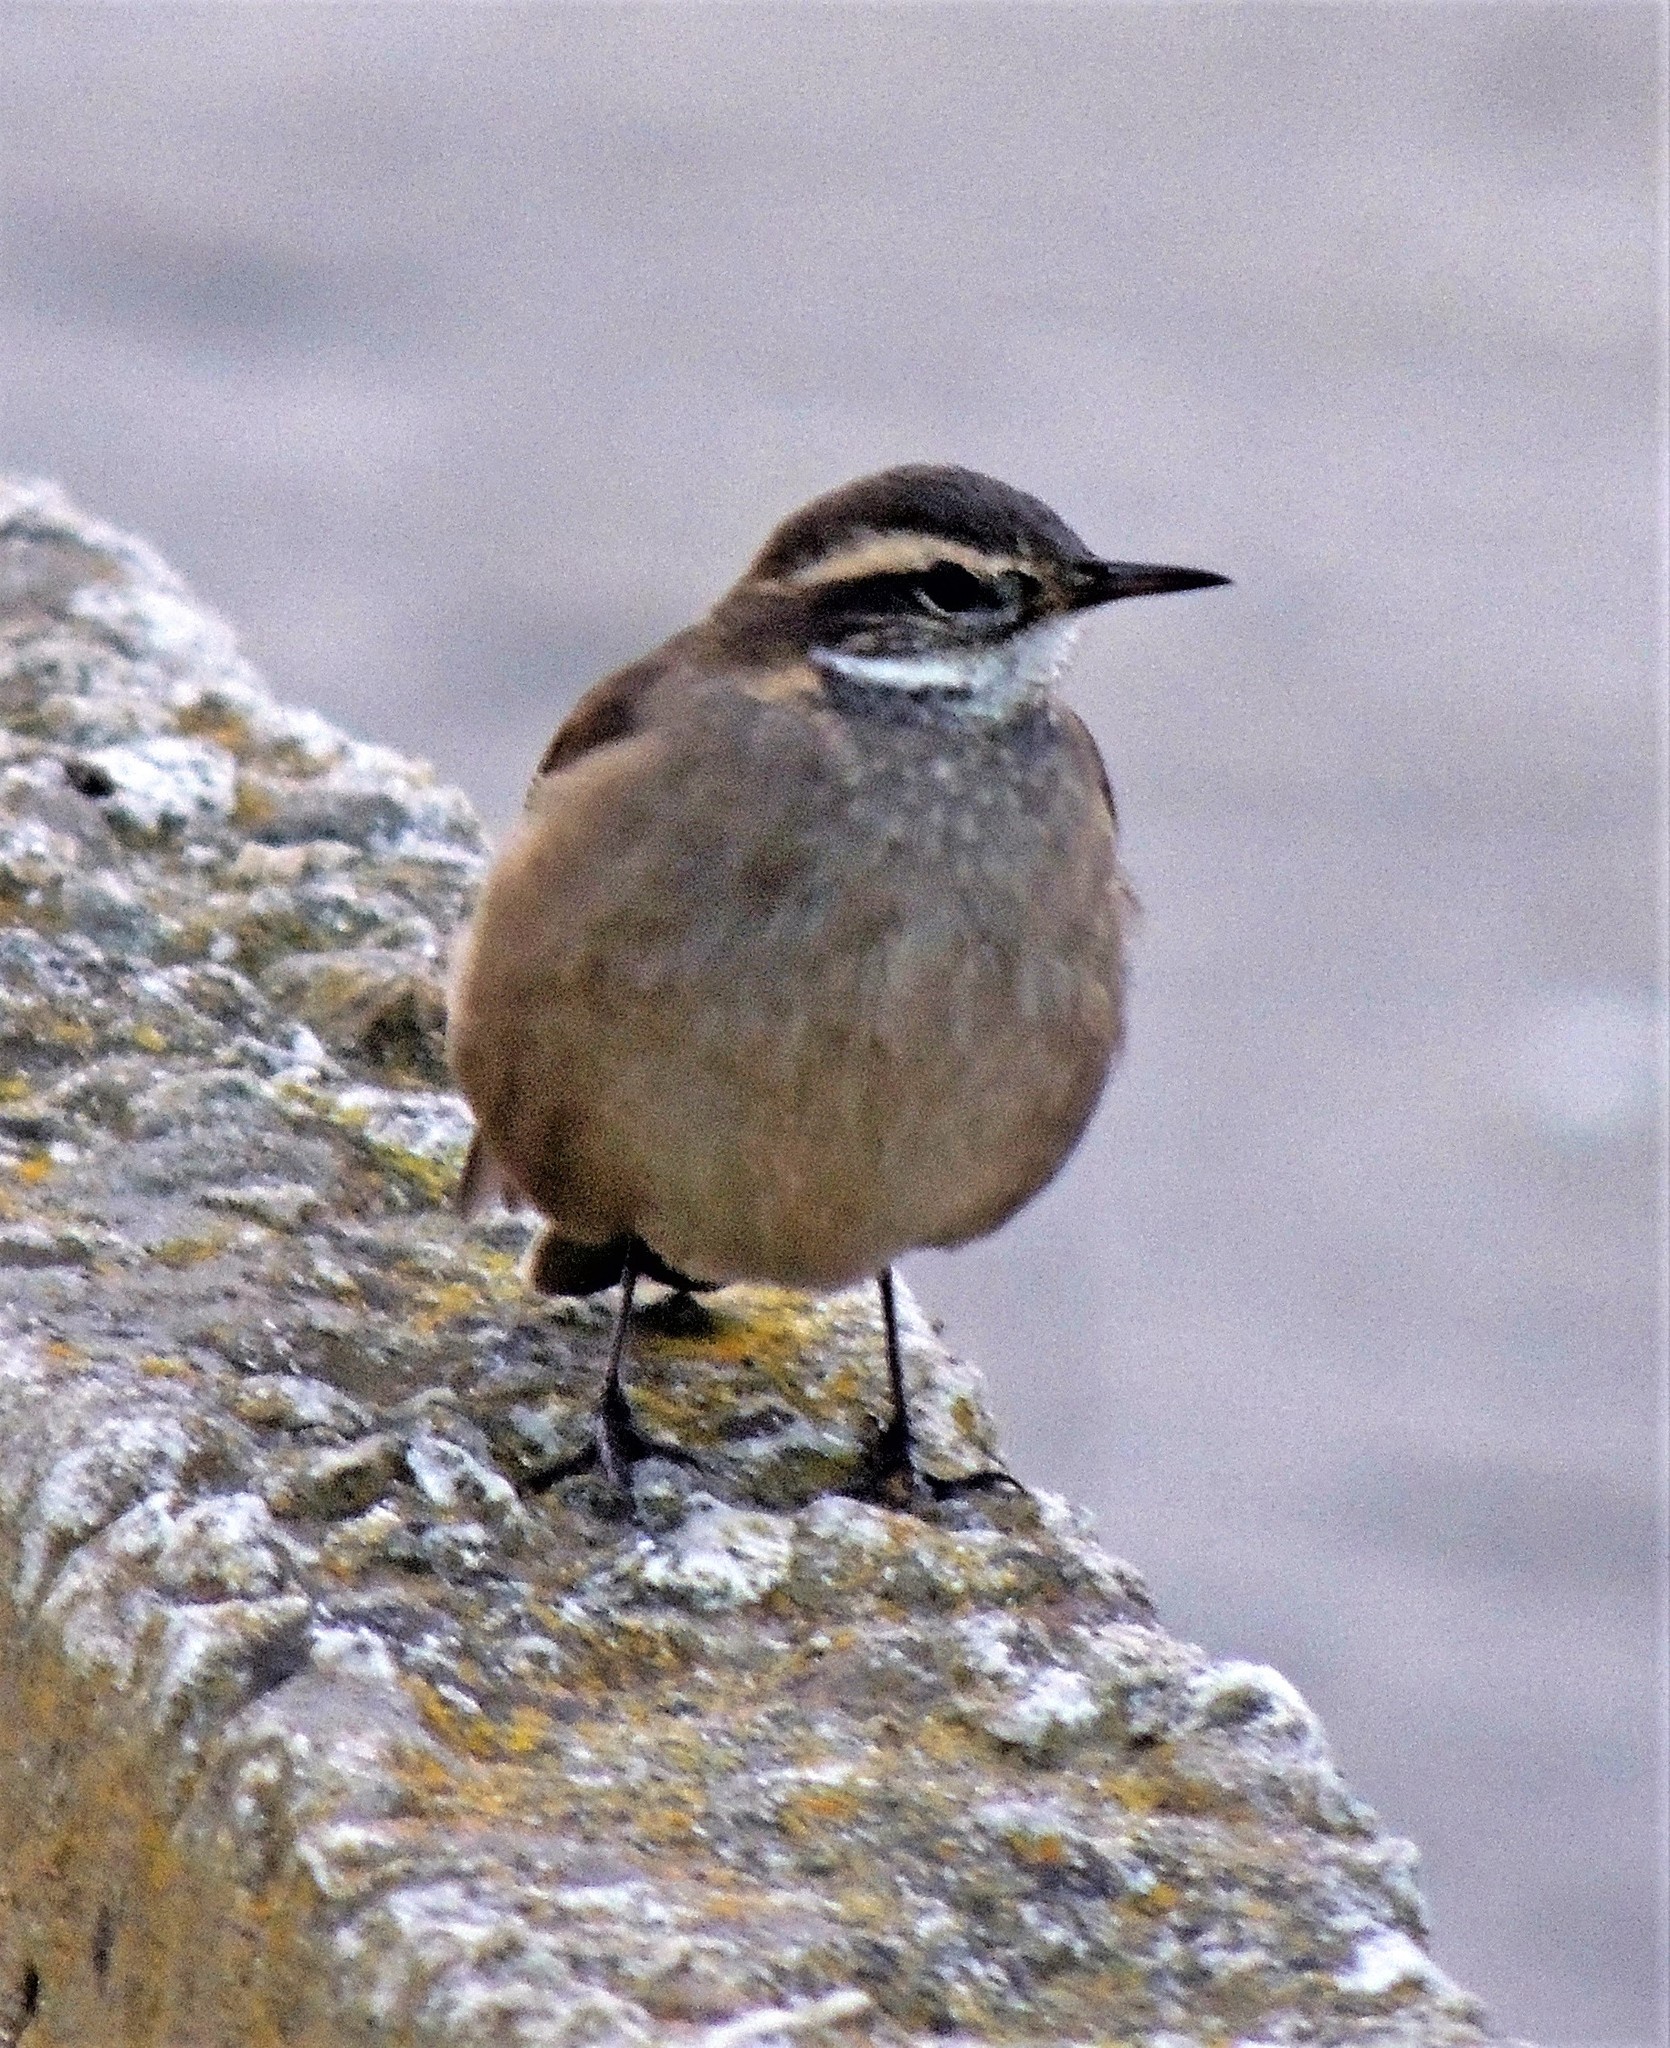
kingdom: Animalia
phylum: Chordata
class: Aves
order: Passeriformes
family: Furnariidae
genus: Cinclodes
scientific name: Cinclodes fuscus
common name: Buff-winged cinclodes
